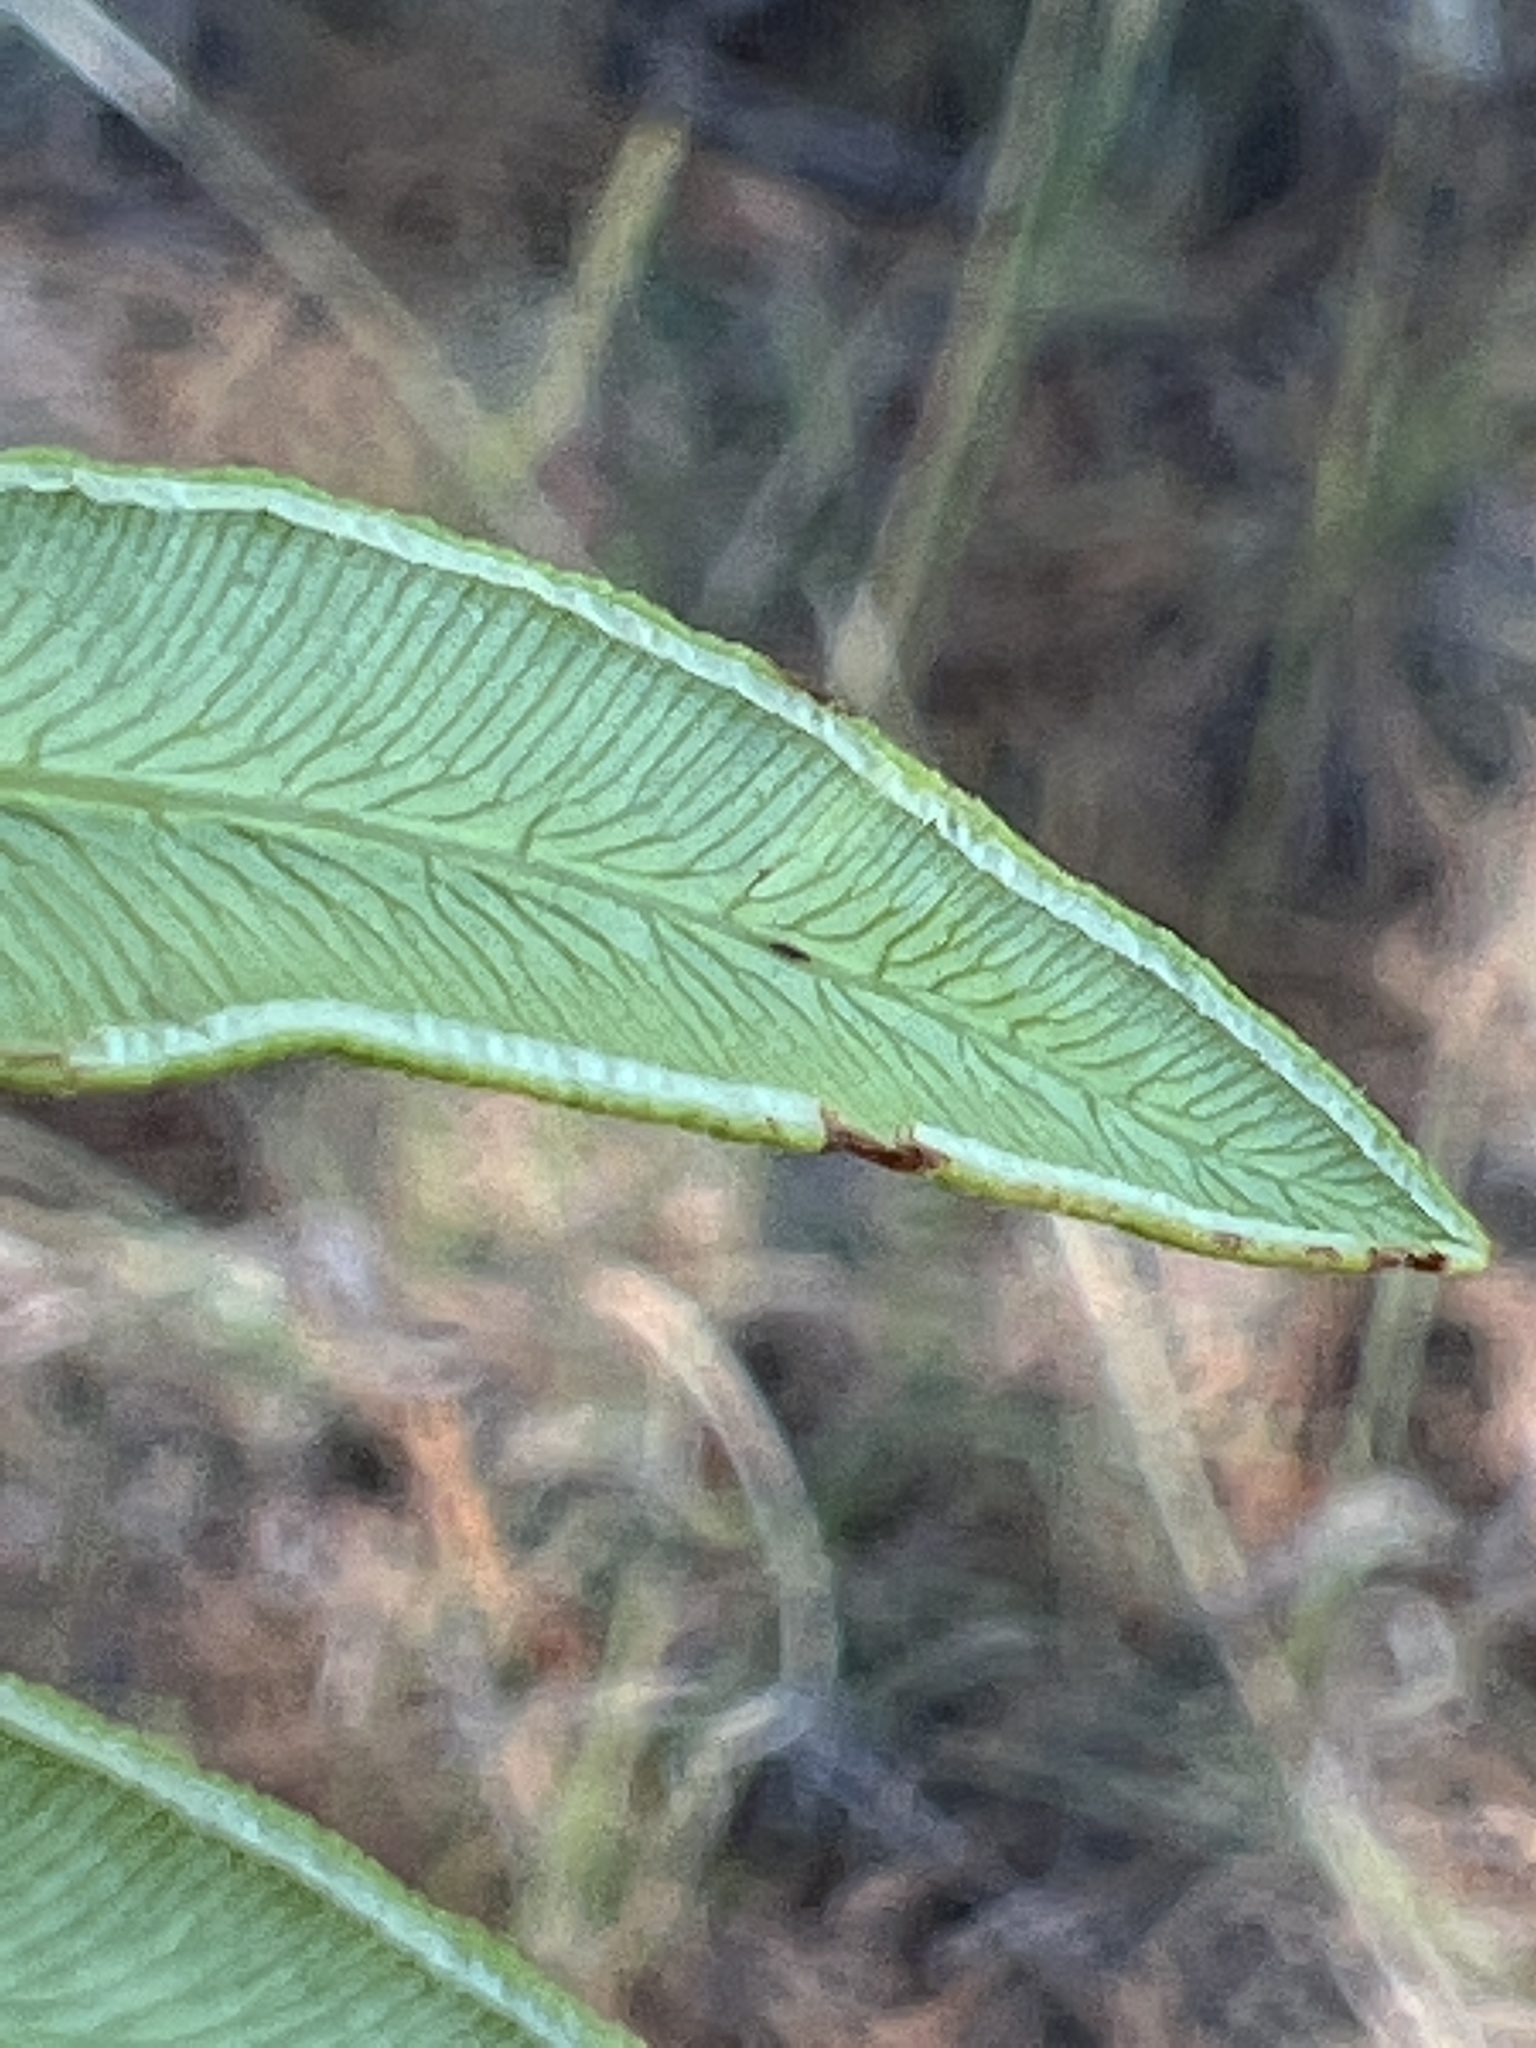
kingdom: Plantae
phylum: Tracheophyta
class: Polypodiopsida
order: Polypodiales
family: Dennstaedtiaceae
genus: Pteridium
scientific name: Pteridium
